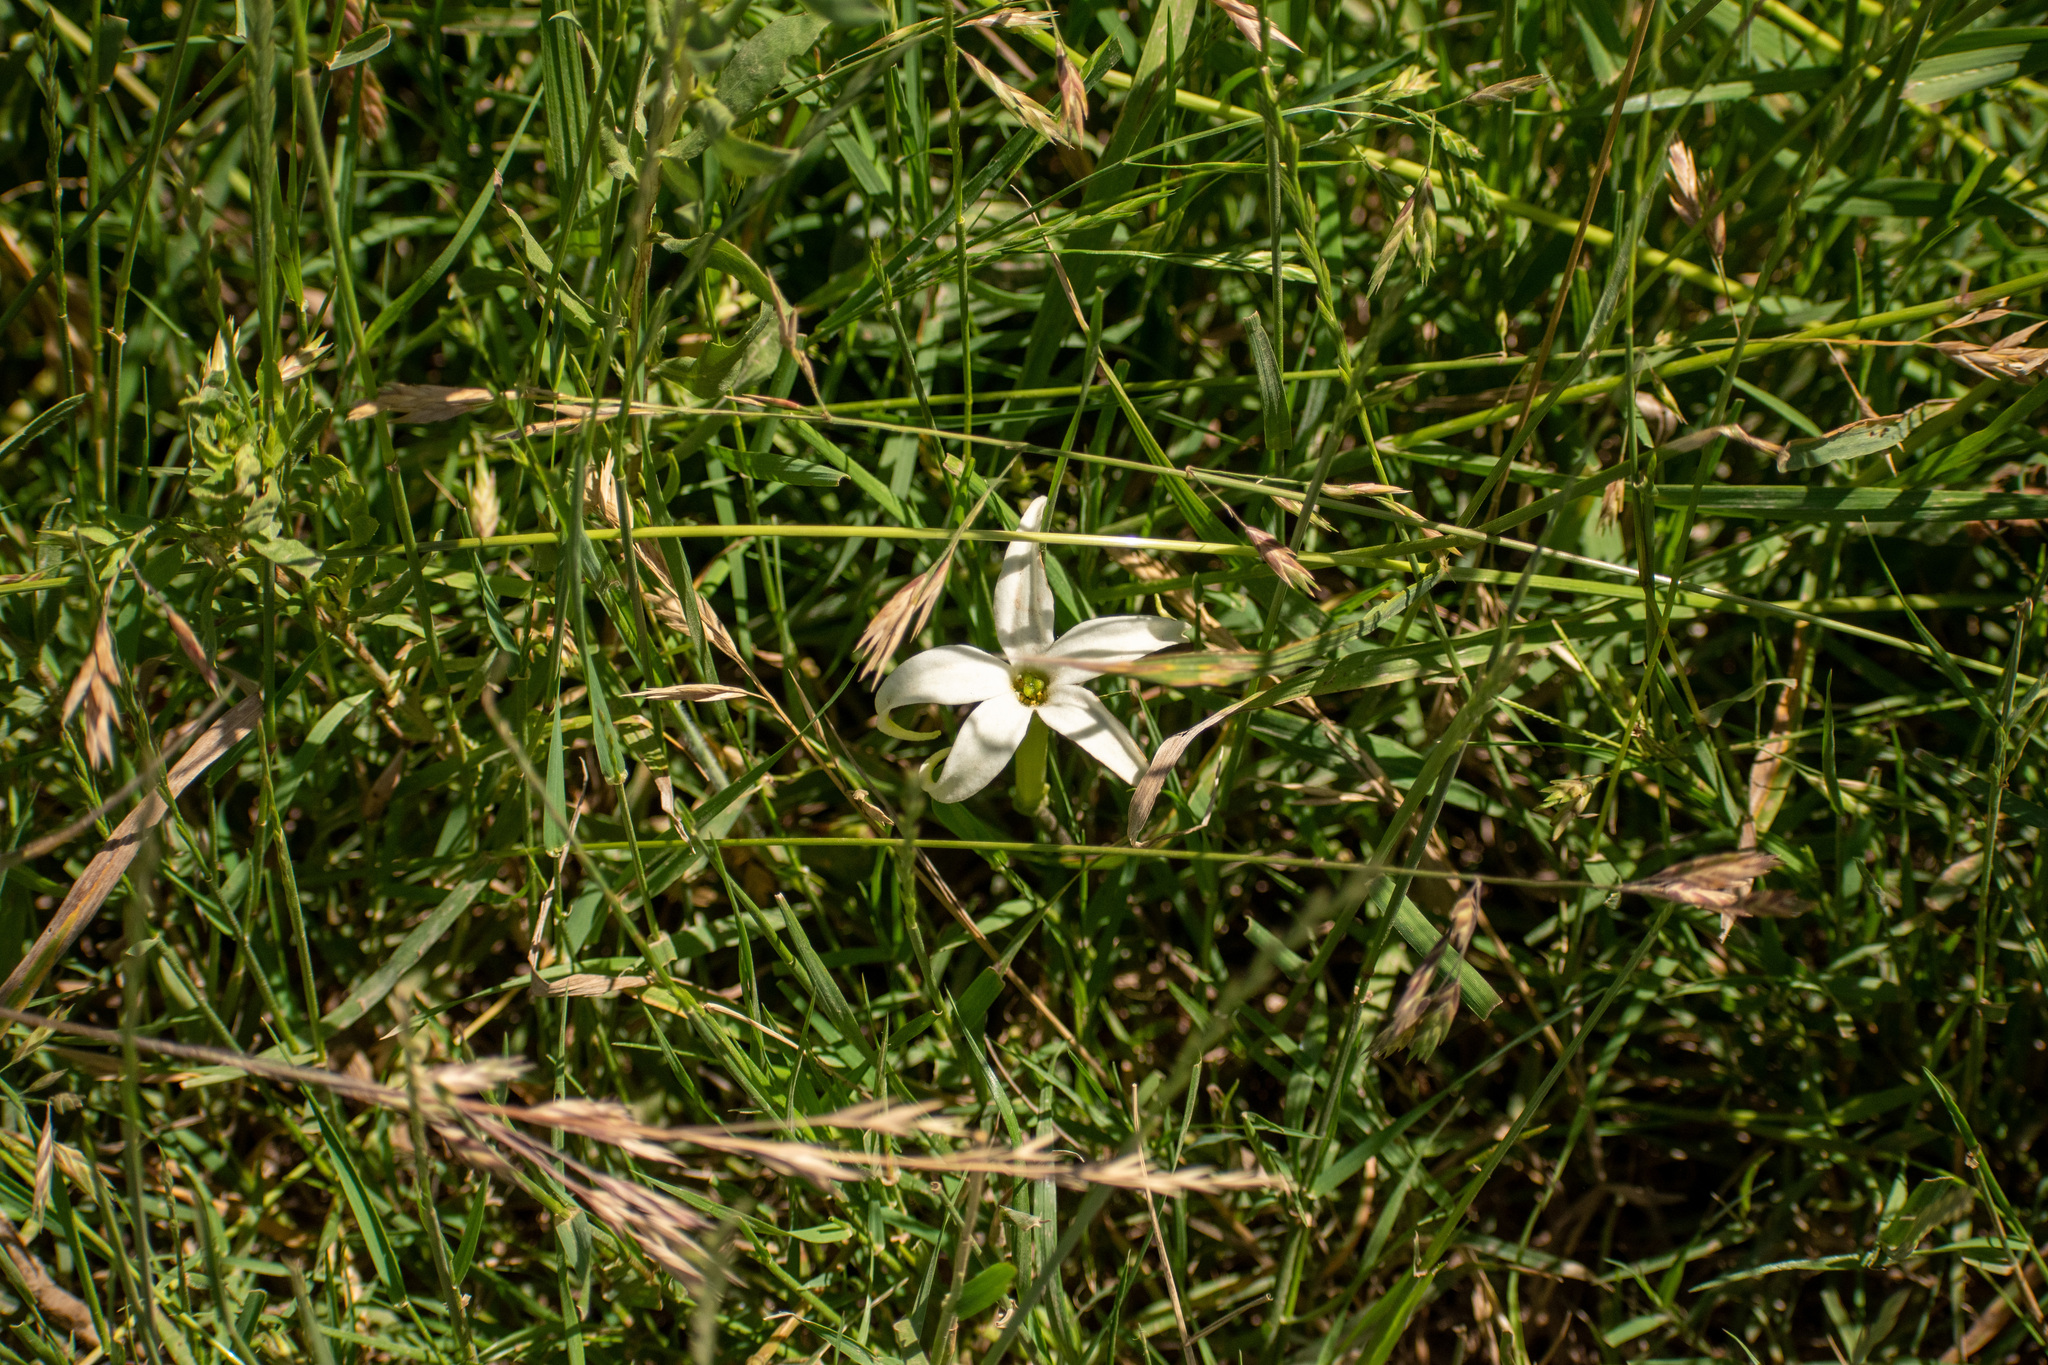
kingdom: Plantae
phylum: Tracheophyta
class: Magnoliopsida
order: Solanales
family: Solanaceae
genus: Jaborosa
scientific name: Jaborosa integrifolia
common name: Springblossom
